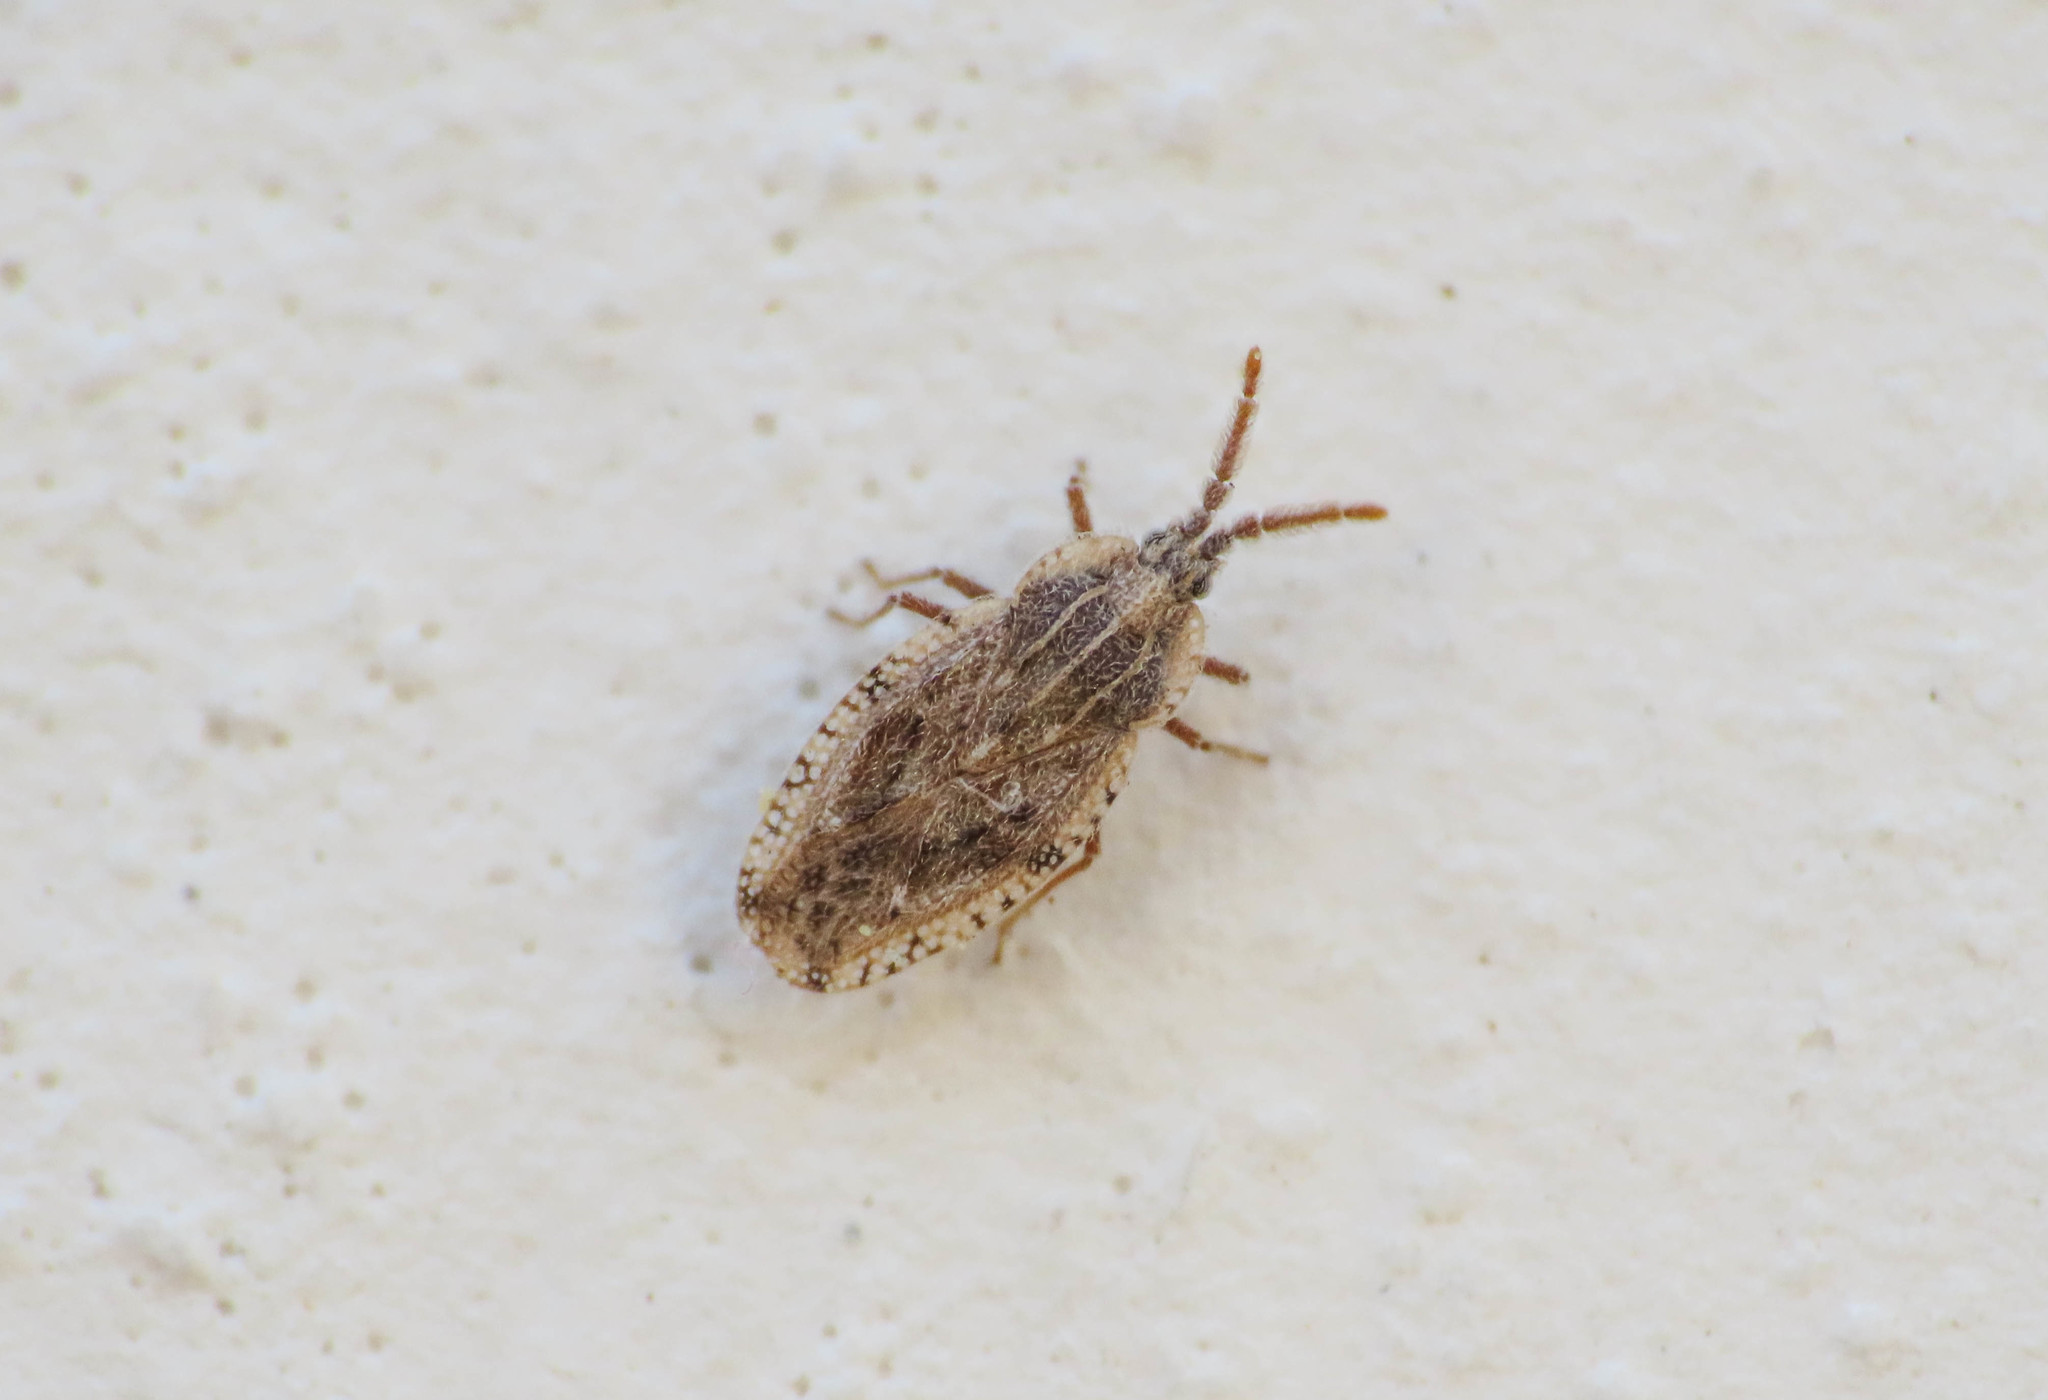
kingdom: Animalia
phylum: Arthropoda
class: Insecta
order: Hemiptera
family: Tingidae
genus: Tingis
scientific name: Tingis crispata
